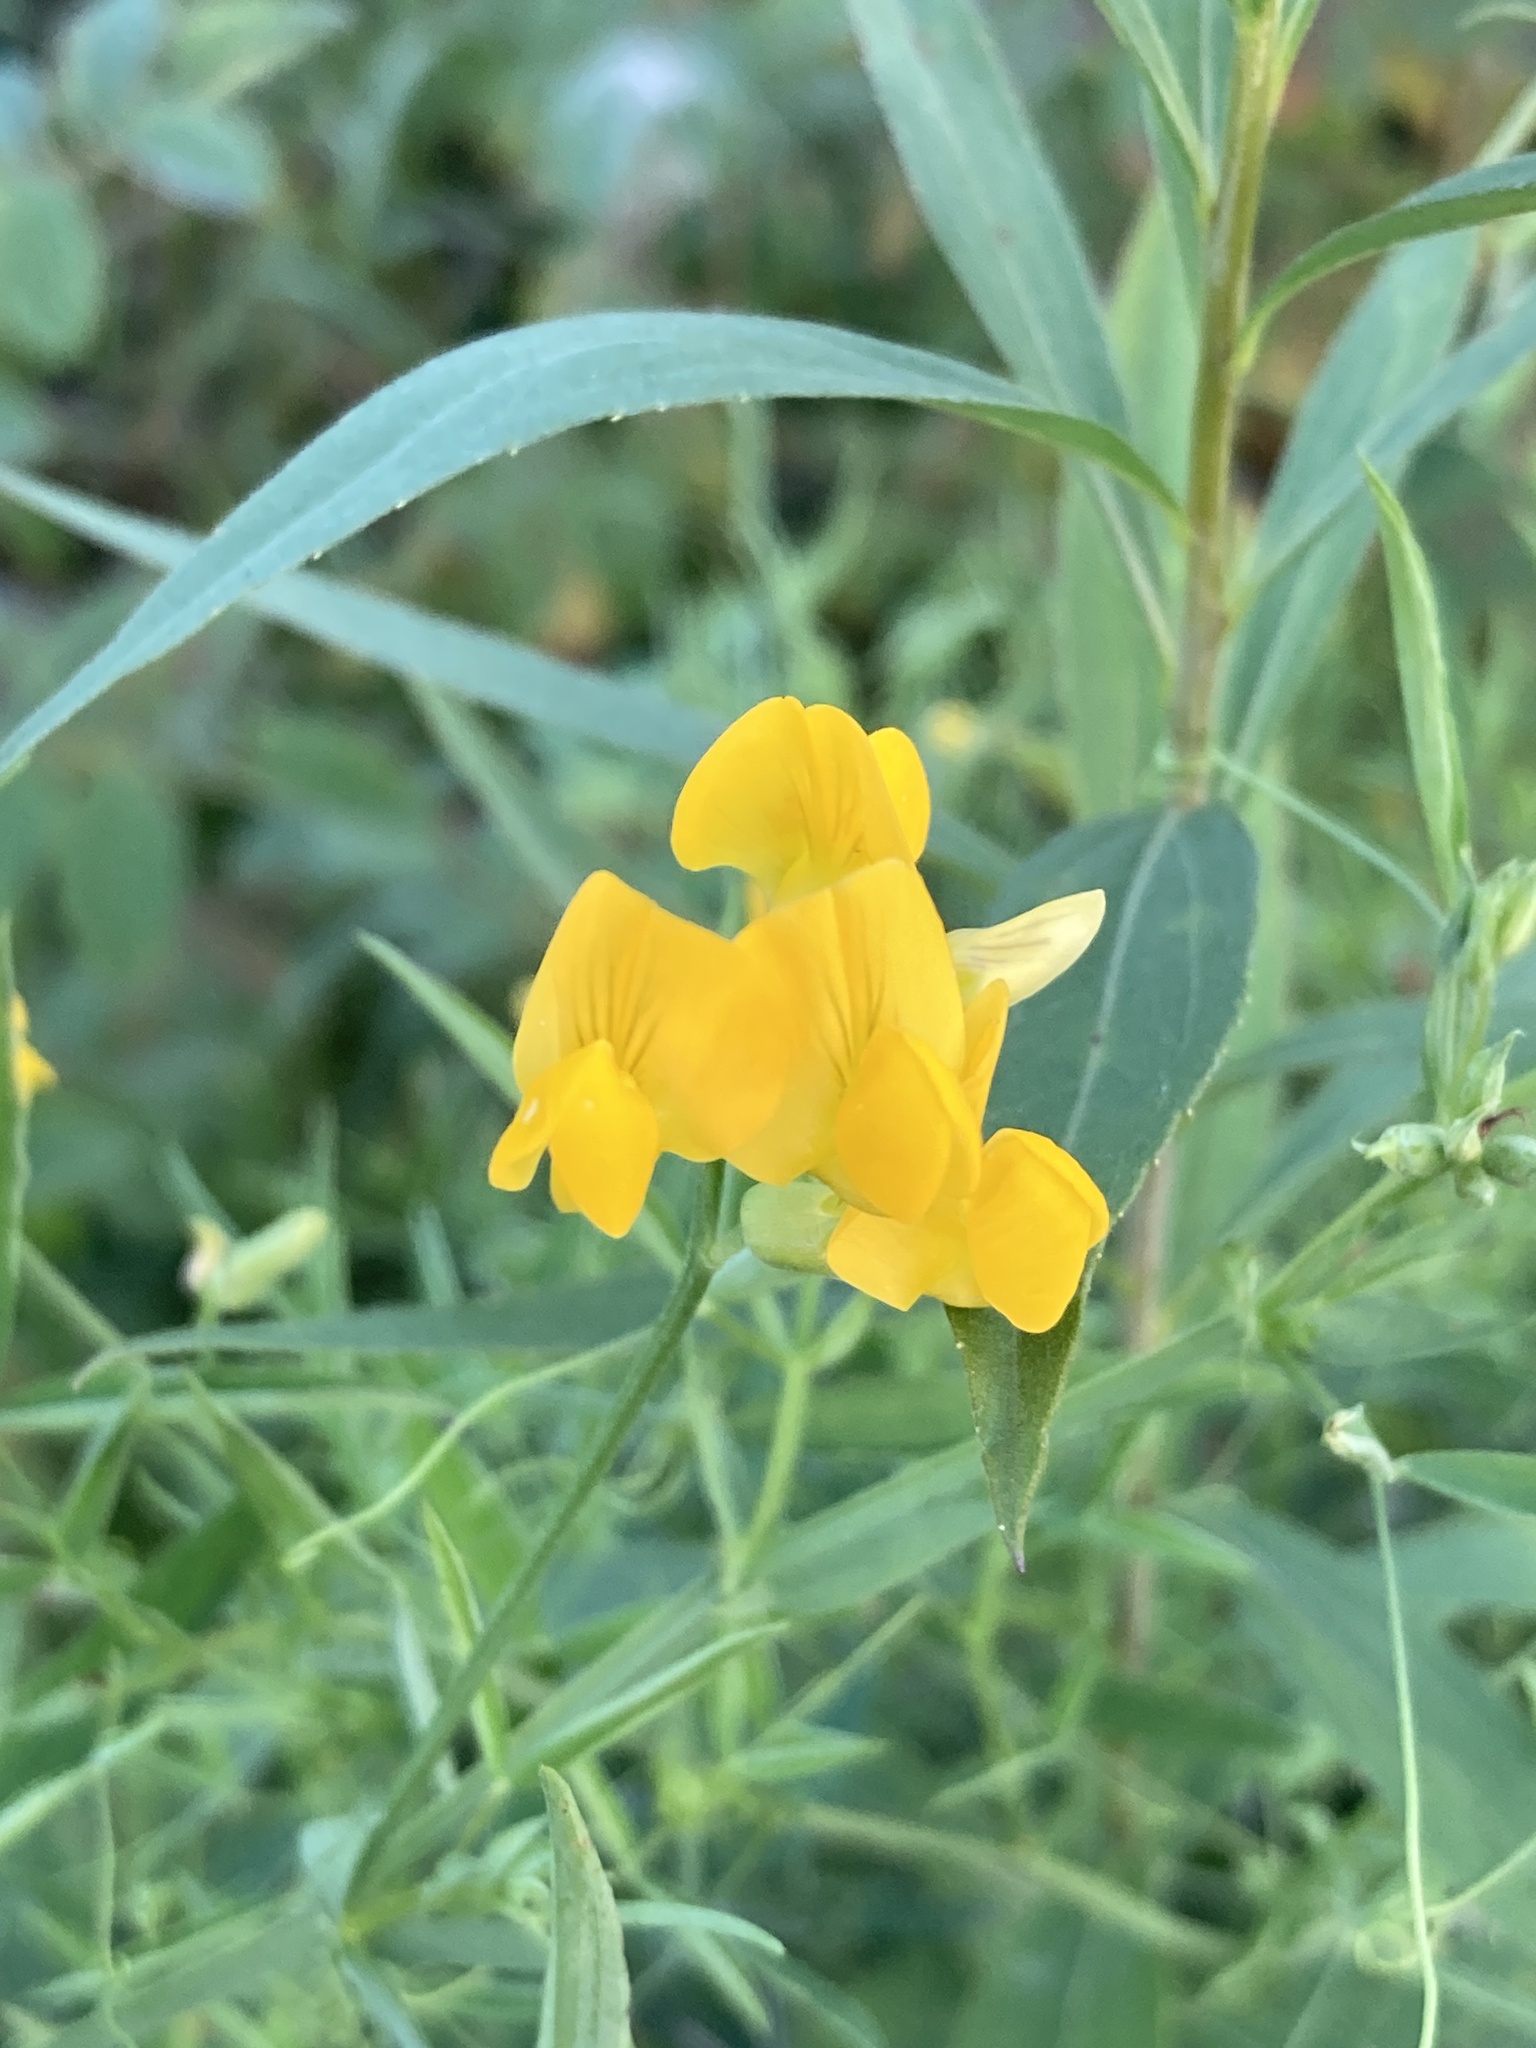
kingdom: Plantae
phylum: Tracheophyta
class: Magnoliopsida
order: Fabales
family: Fabaceae
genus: Lathyrus
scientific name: Lathyrus pratensis
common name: Meadow vetchling
